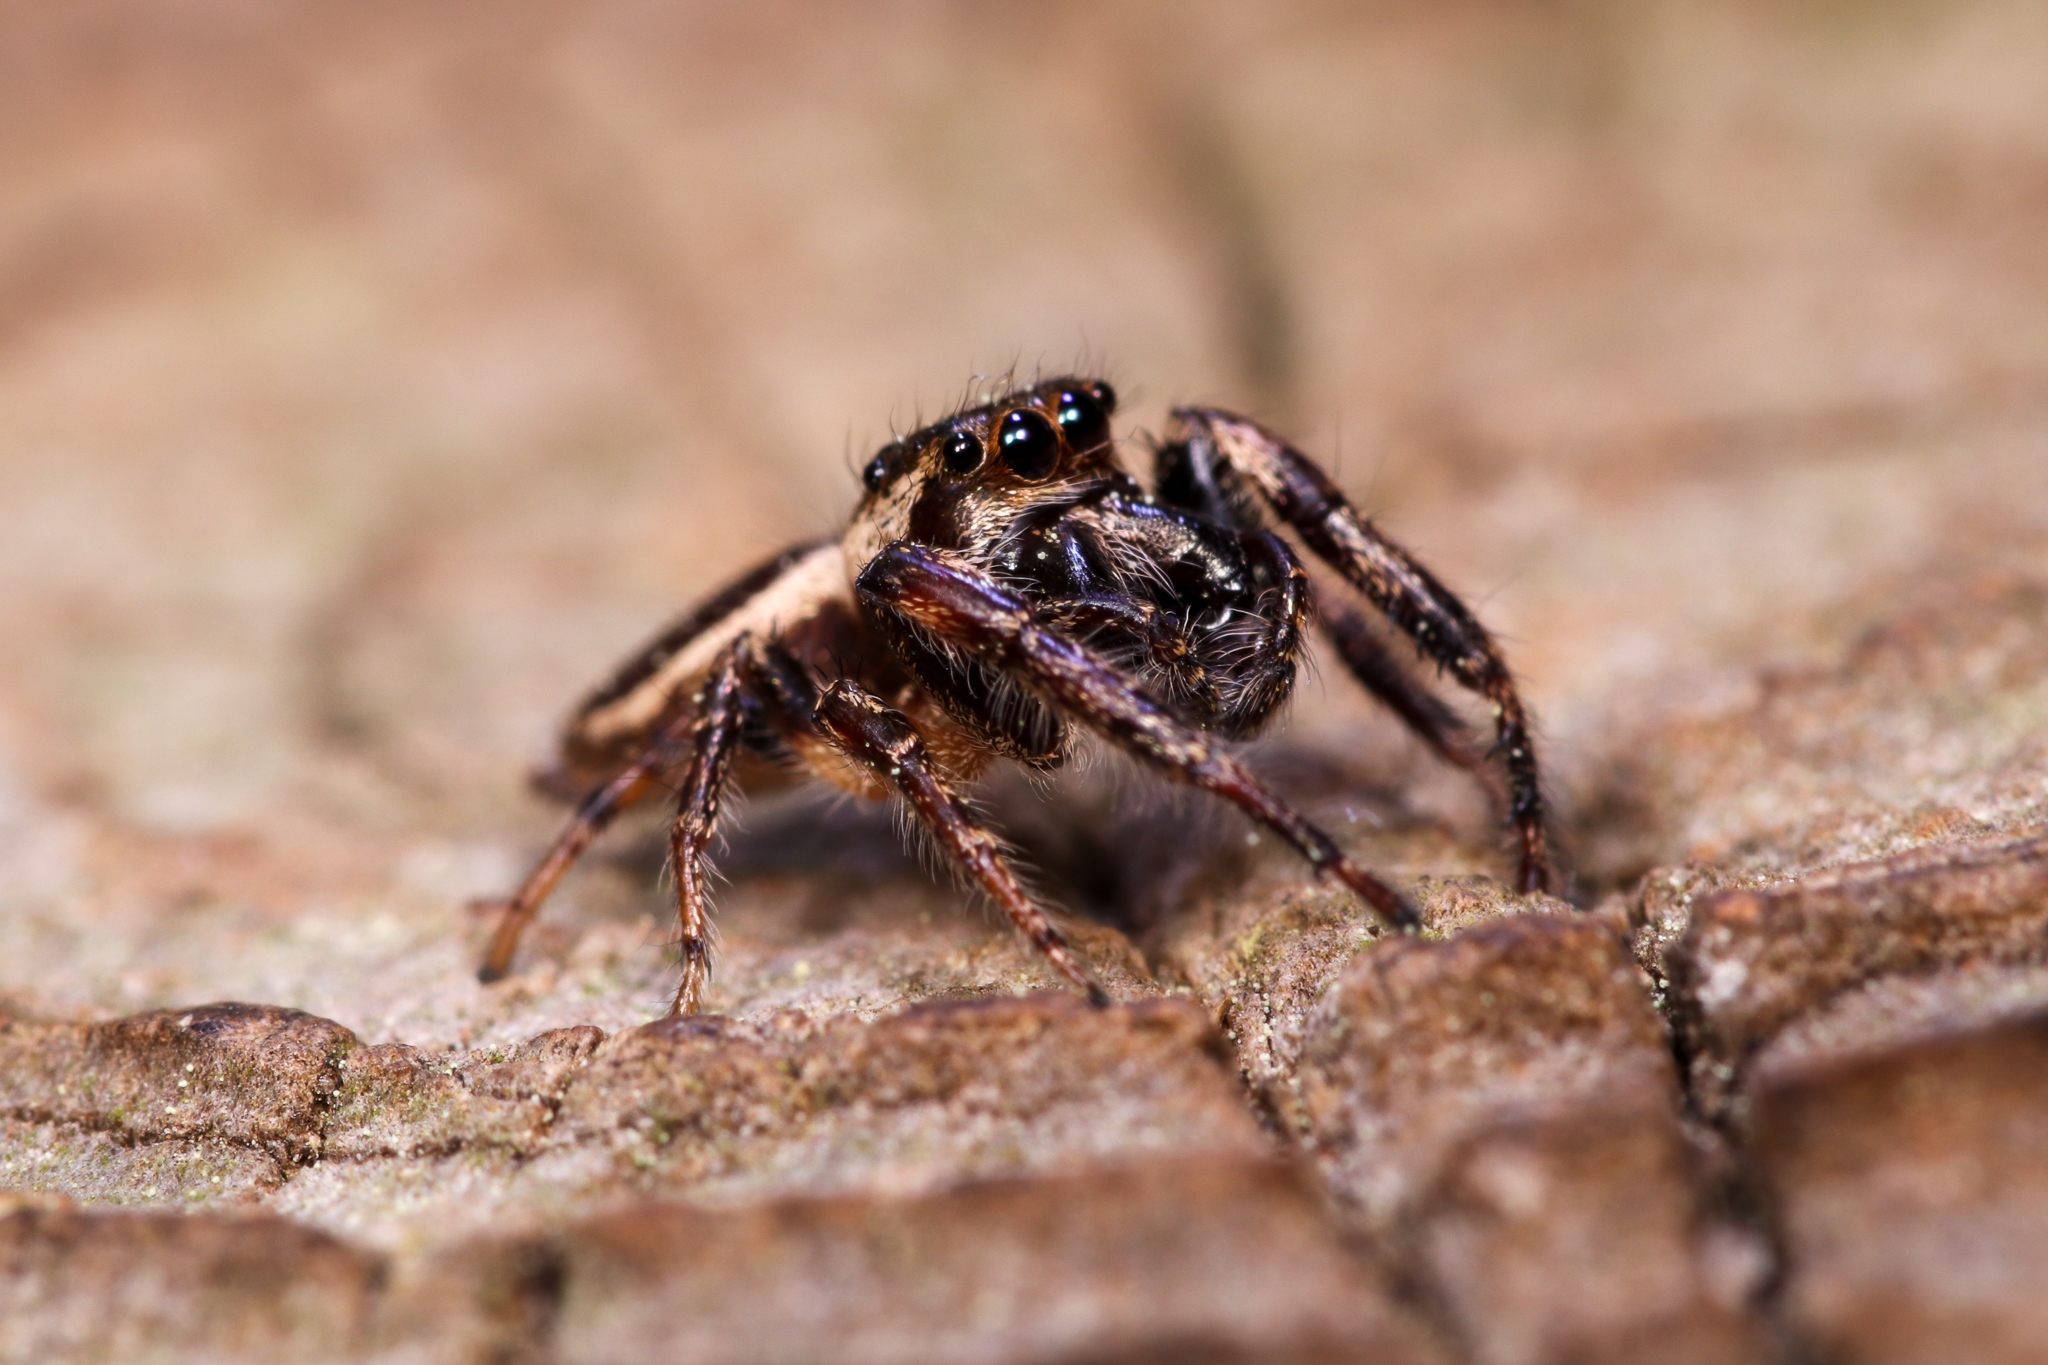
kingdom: Animalia
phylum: Arthropoda
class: Arachnida
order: Araneae
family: Salticidae
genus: Eris
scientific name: Eris militaris
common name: Bronze jumper
